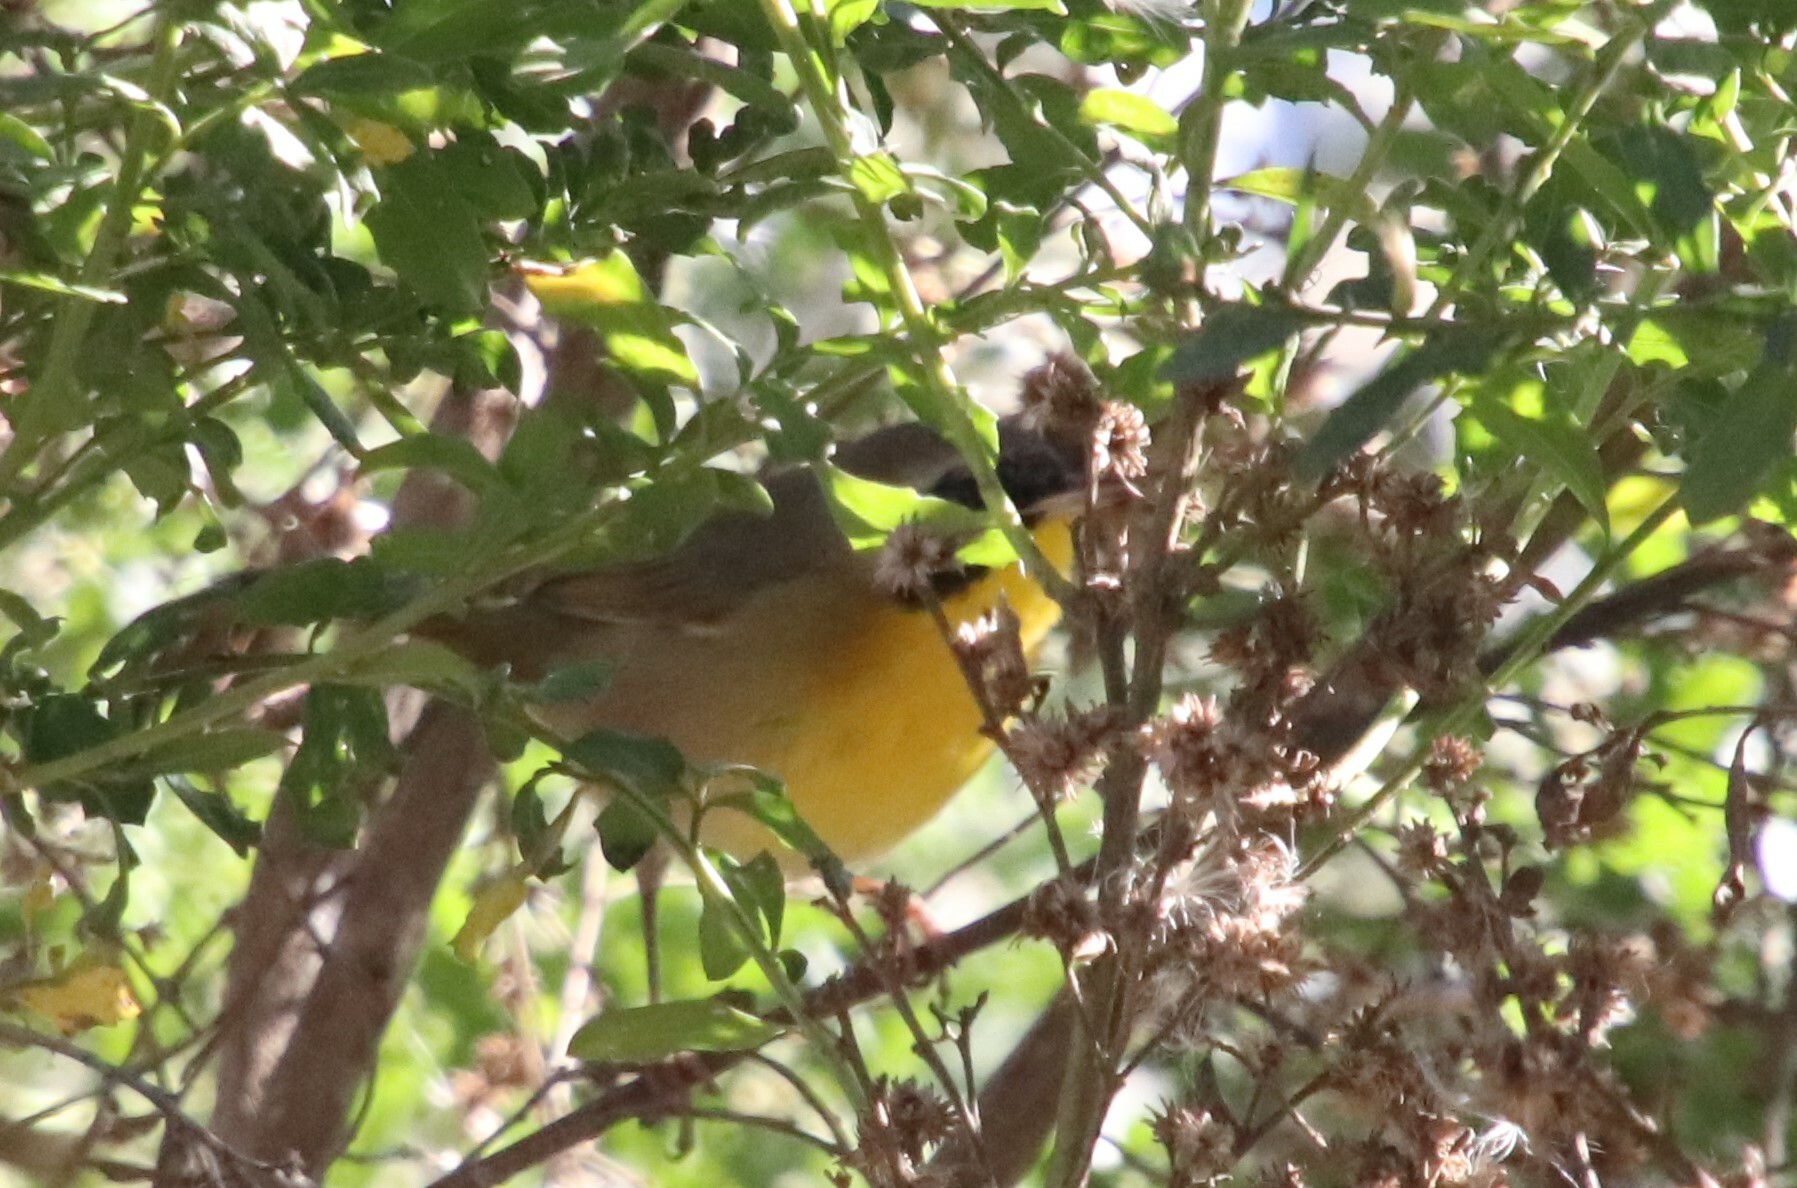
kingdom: Animalia
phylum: Chordata
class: Aves
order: Passeriformes
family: Parulidae
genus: Geothlypis
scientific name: Geothlypis trichas
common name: Common yellowthroat
